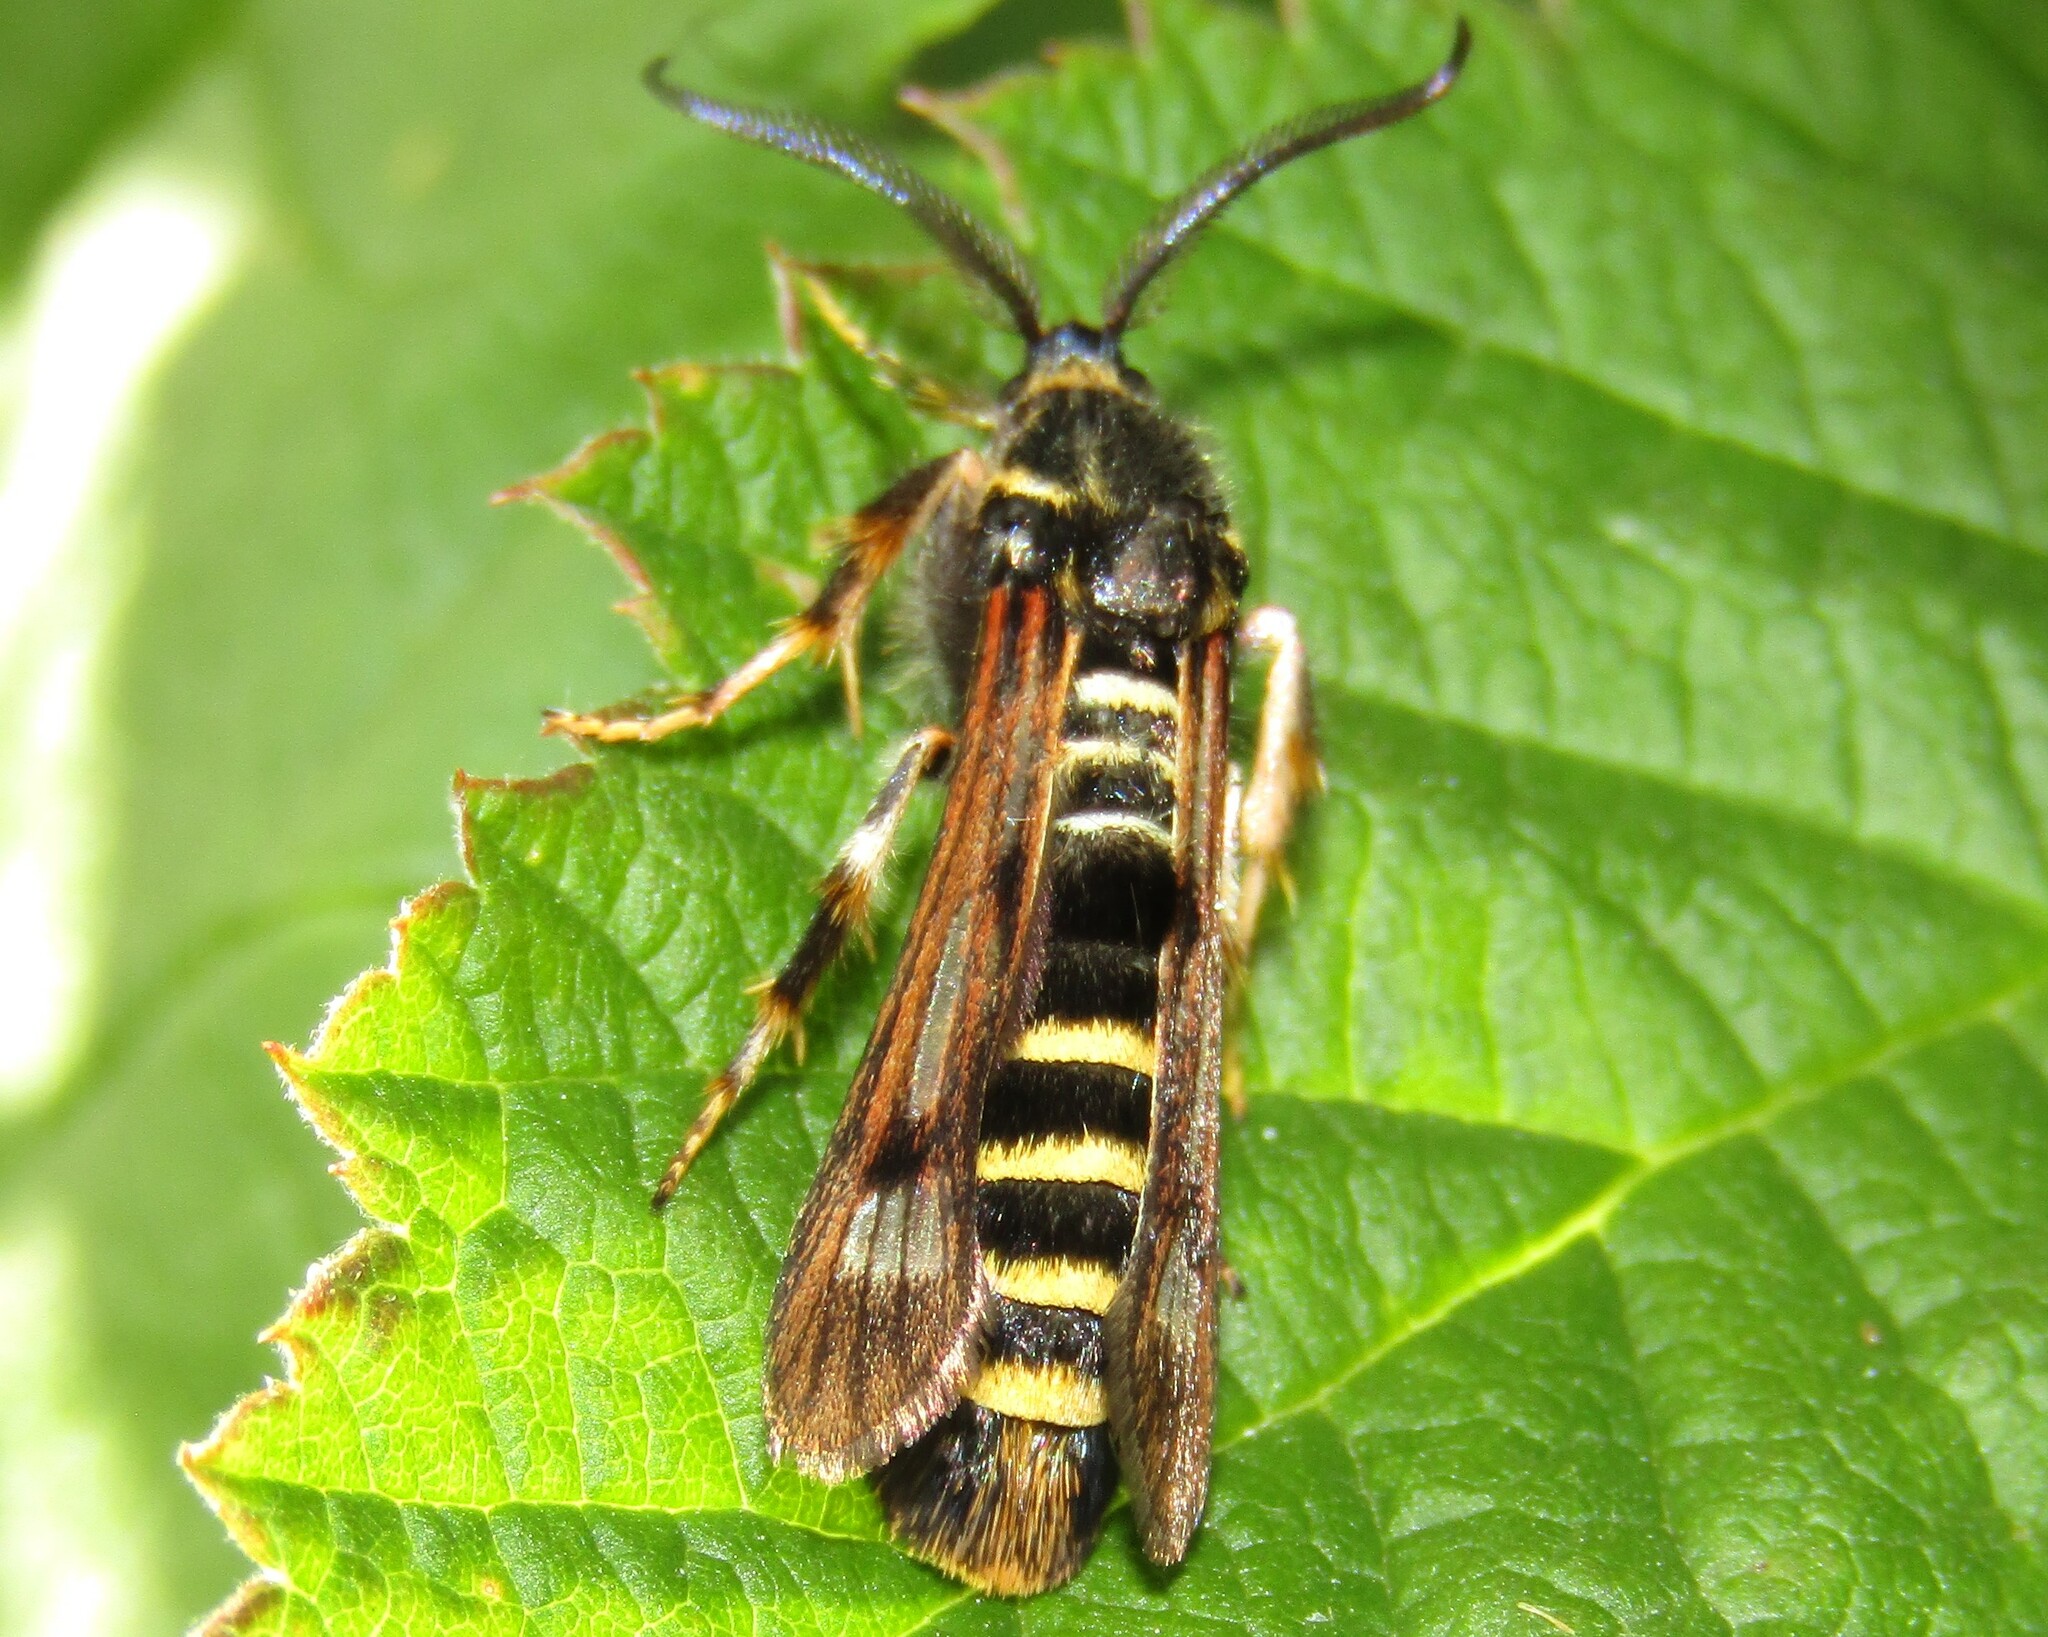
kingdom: Animalia
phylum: Arthropoda
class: Insecta
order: Lepidoptera
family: Sesiidae
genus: Pennisetia
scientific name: Pennisetia hylaeiformis
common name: Raspberry clearwing
